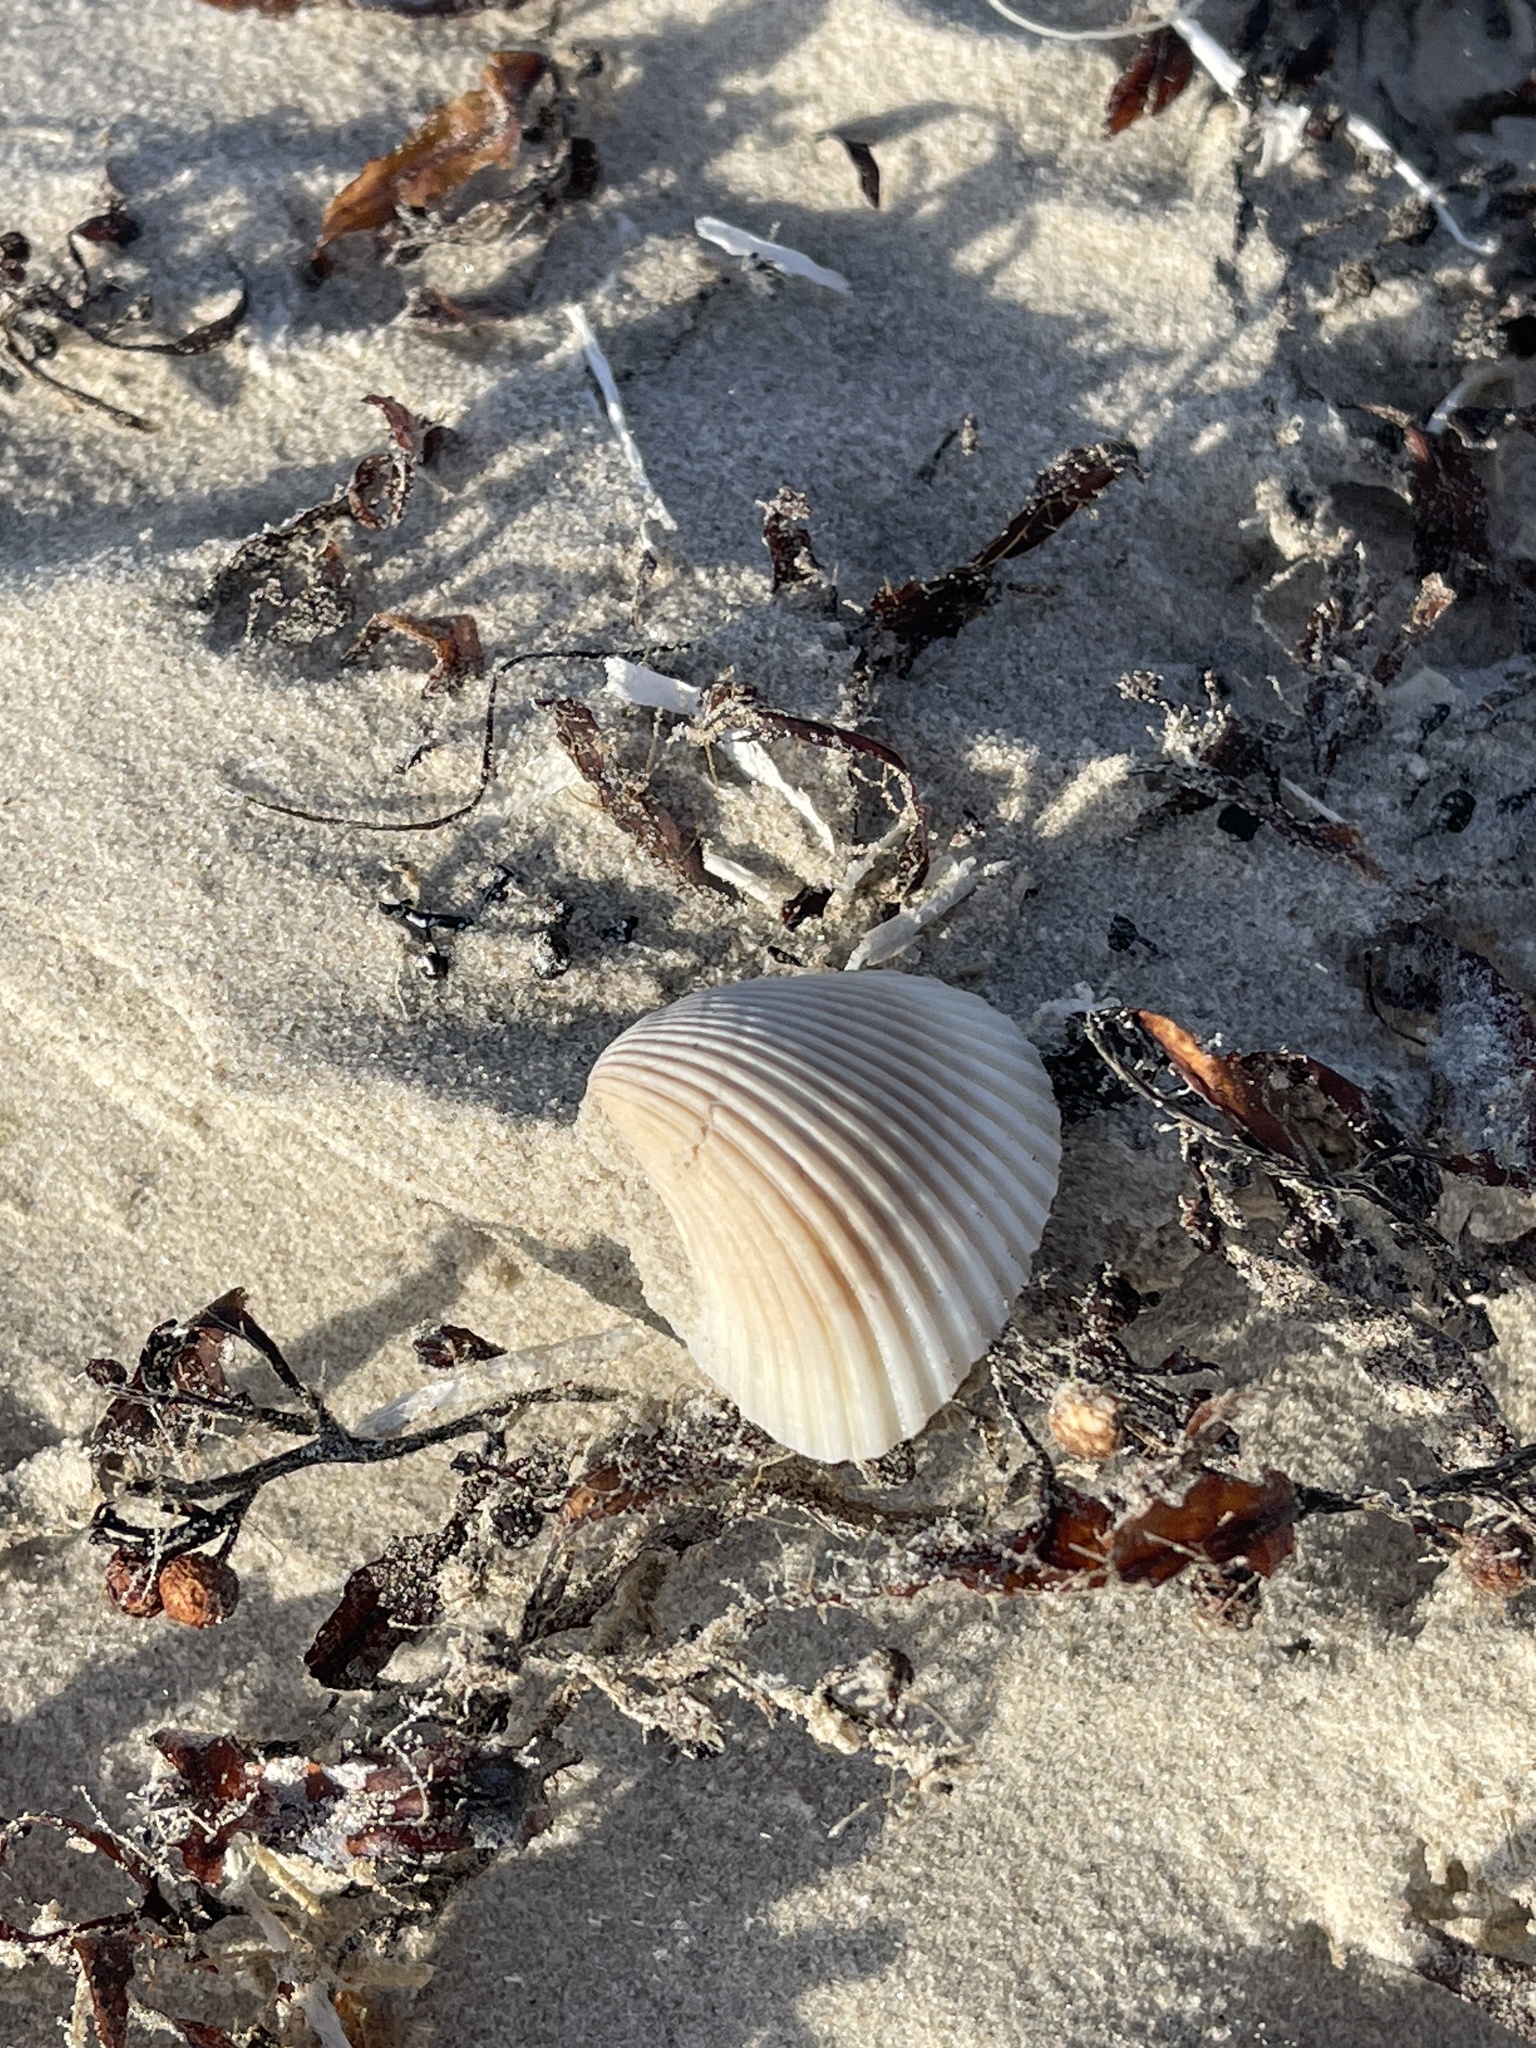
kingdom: Animalia
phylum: Mollusca
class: Bivalvia
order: Arcida
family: Noetiidae
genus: Noetia
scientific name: Noetia ponderosa
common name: Ponderous ark
